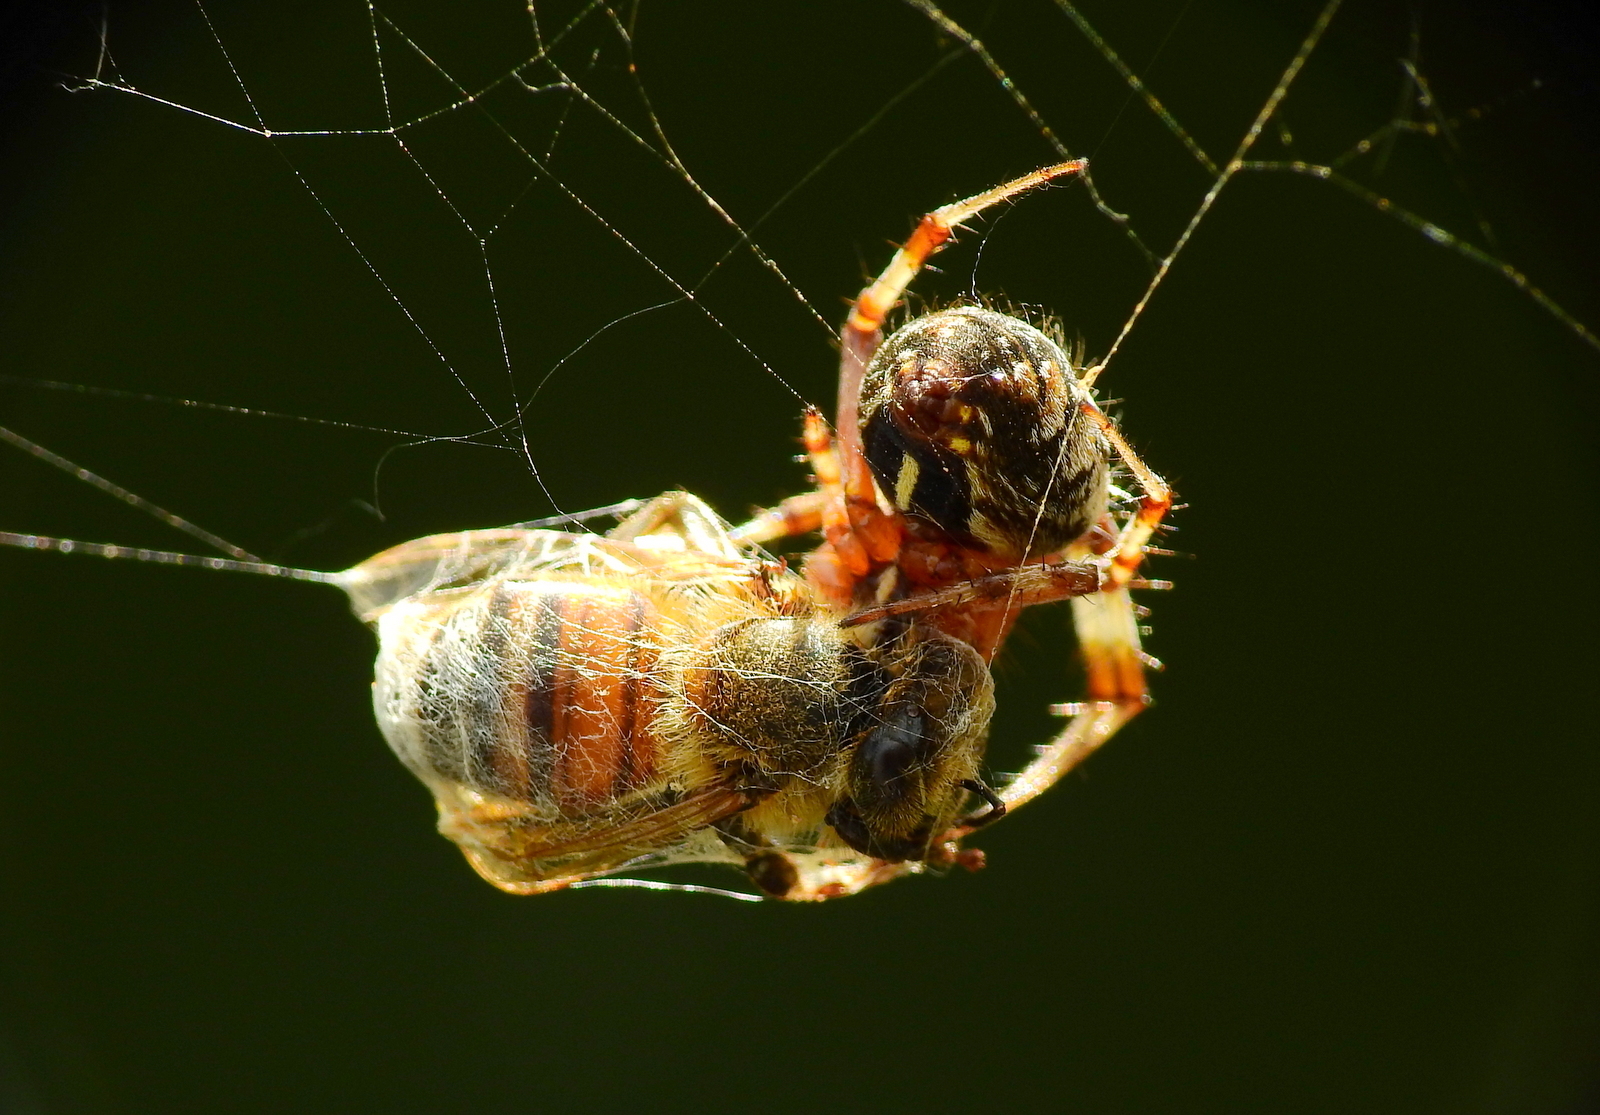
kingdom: Animalia
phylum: Arthropoda
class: Arachnida
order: Araneae
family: Araneidae
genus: Metepeira
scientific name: Metepeira
